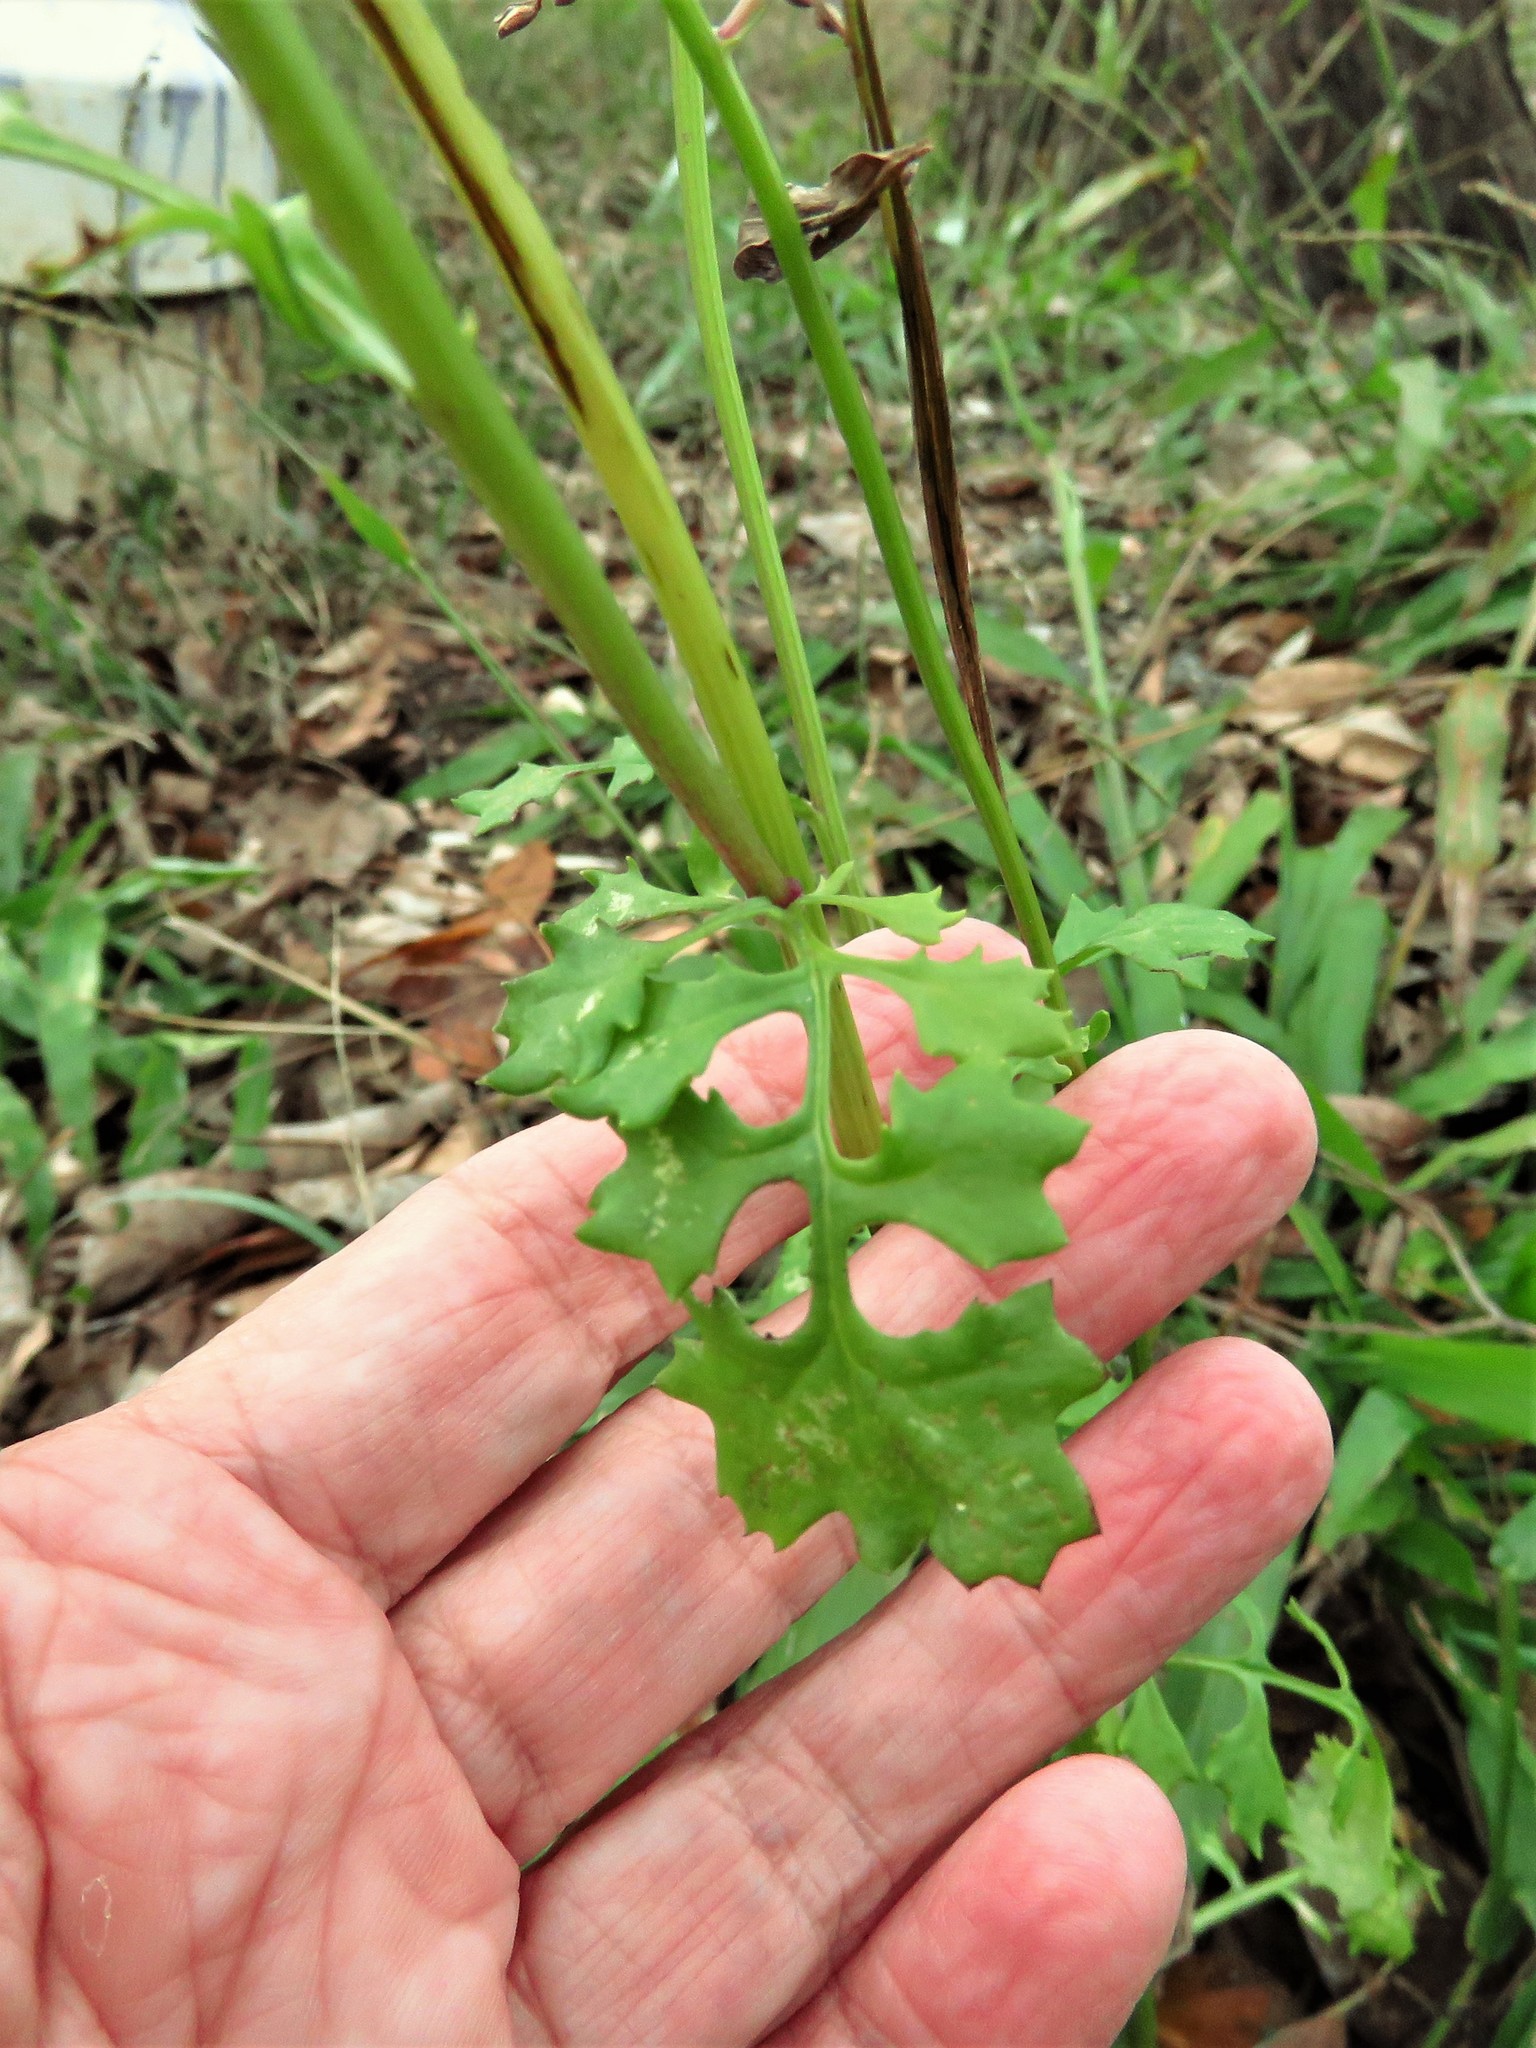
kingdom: Plantae
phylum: Tracheophyta
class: Magnoliopsida
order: Asterales
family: Asteraceae
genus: Packera
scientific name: Packera glabella
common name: Butterweed
